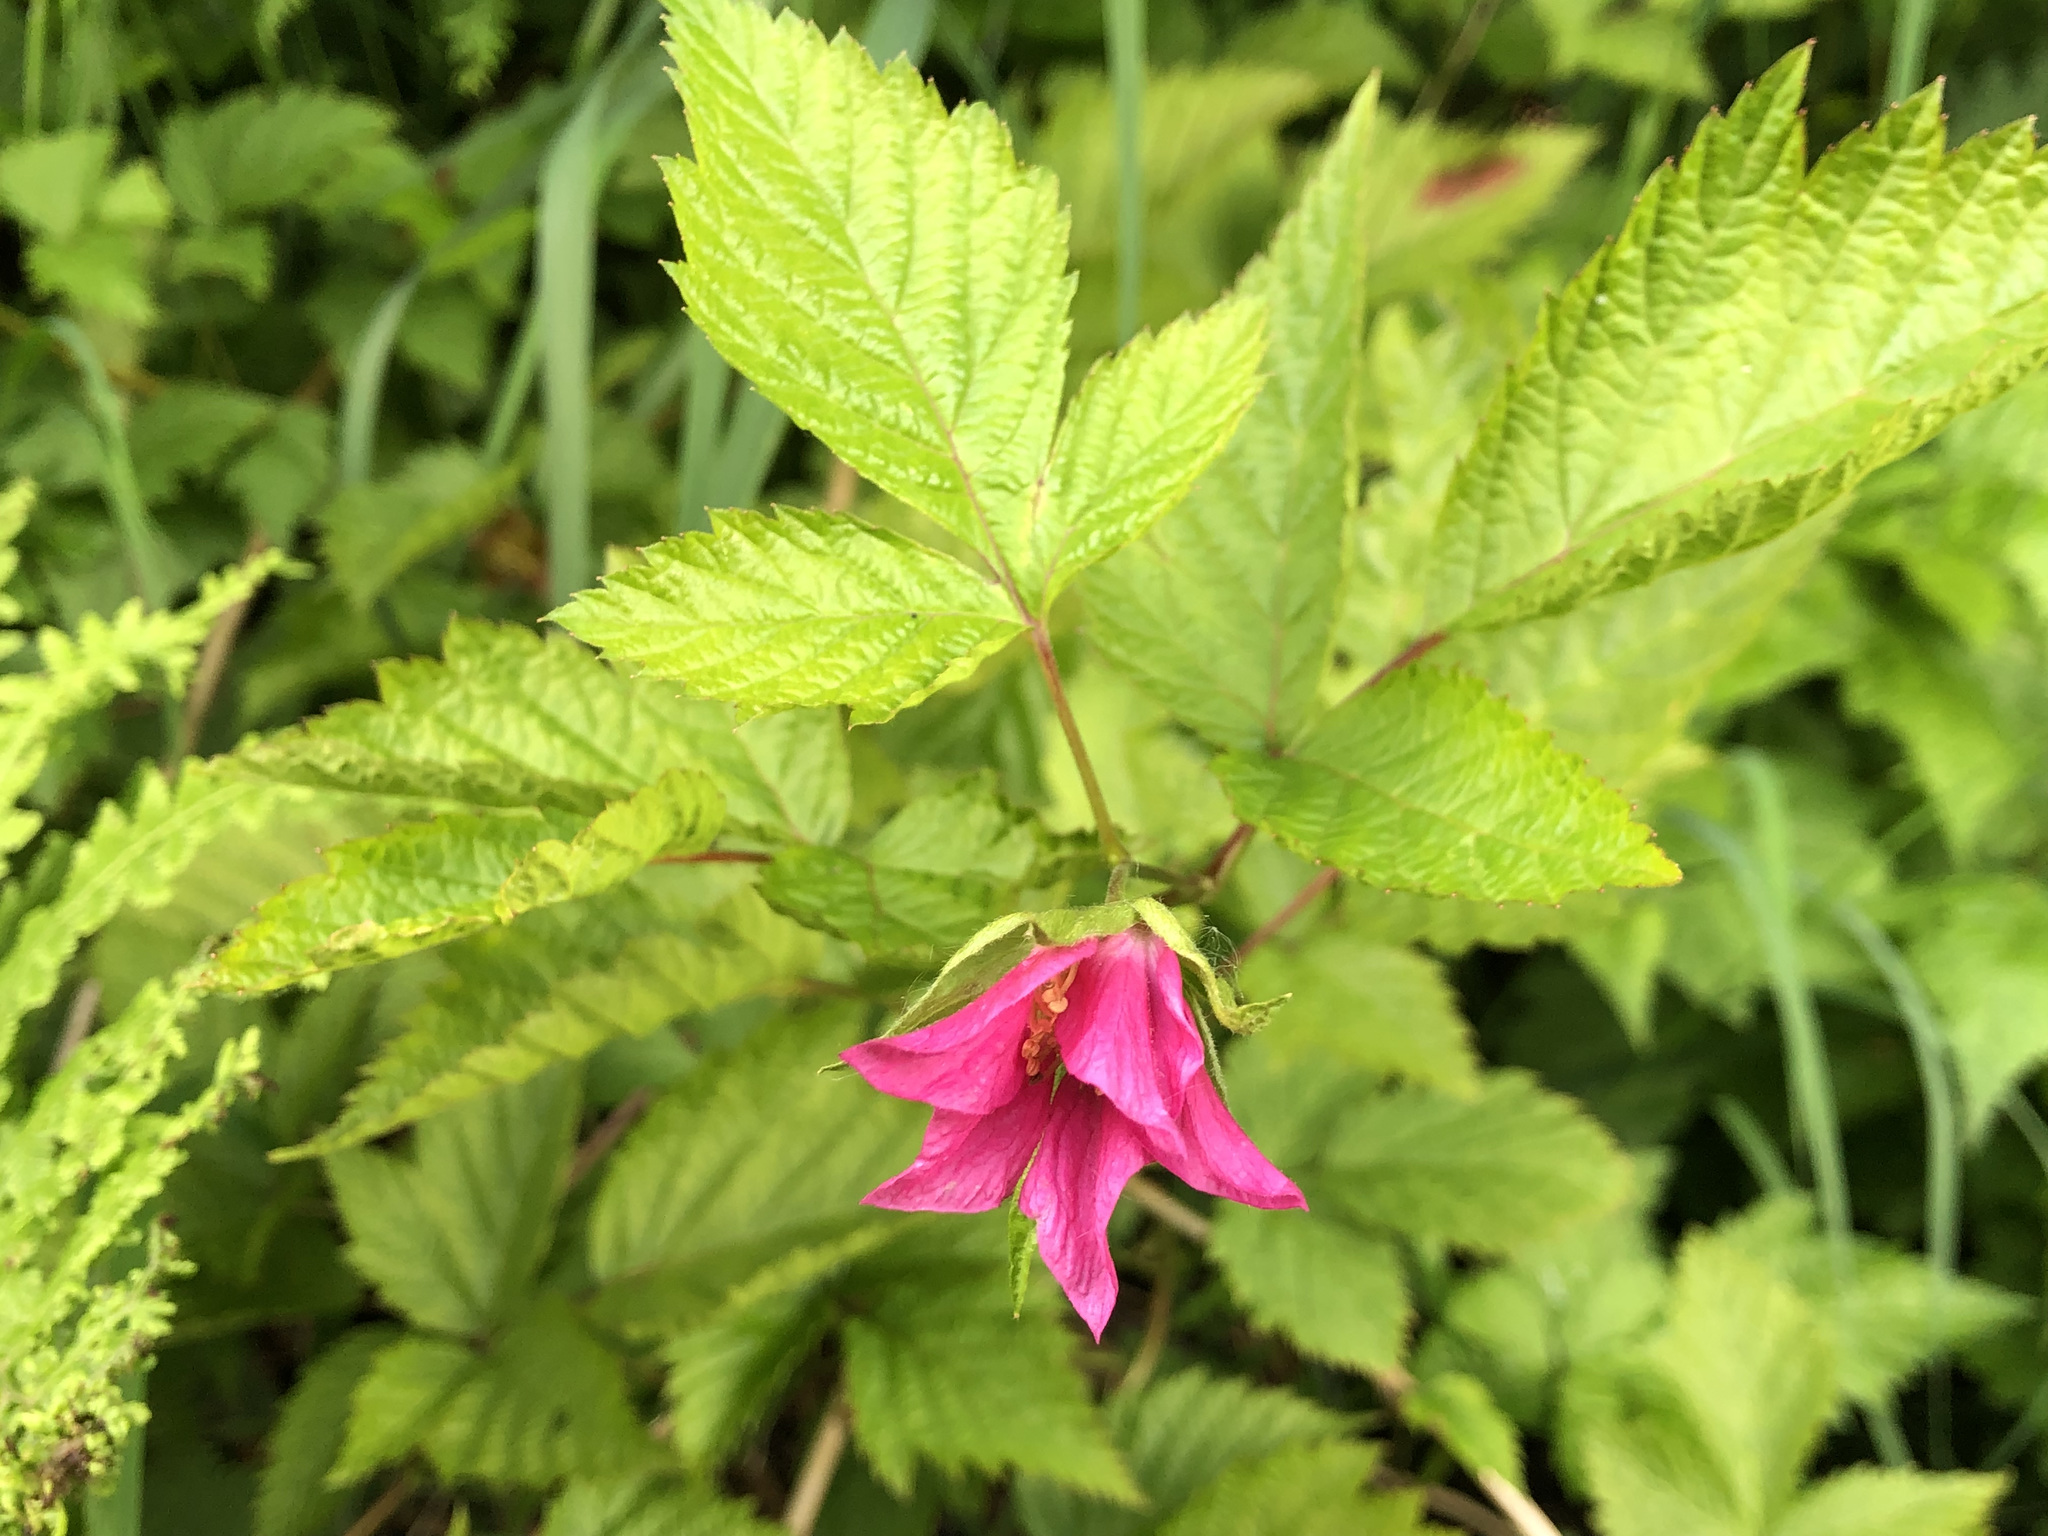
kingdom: Plantae
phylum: Tracheophyta
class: Magnoliopsida
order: Rosales
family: Rosaceae
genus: Rubus
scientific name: Rubus spectabilis
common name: Salmonberry
